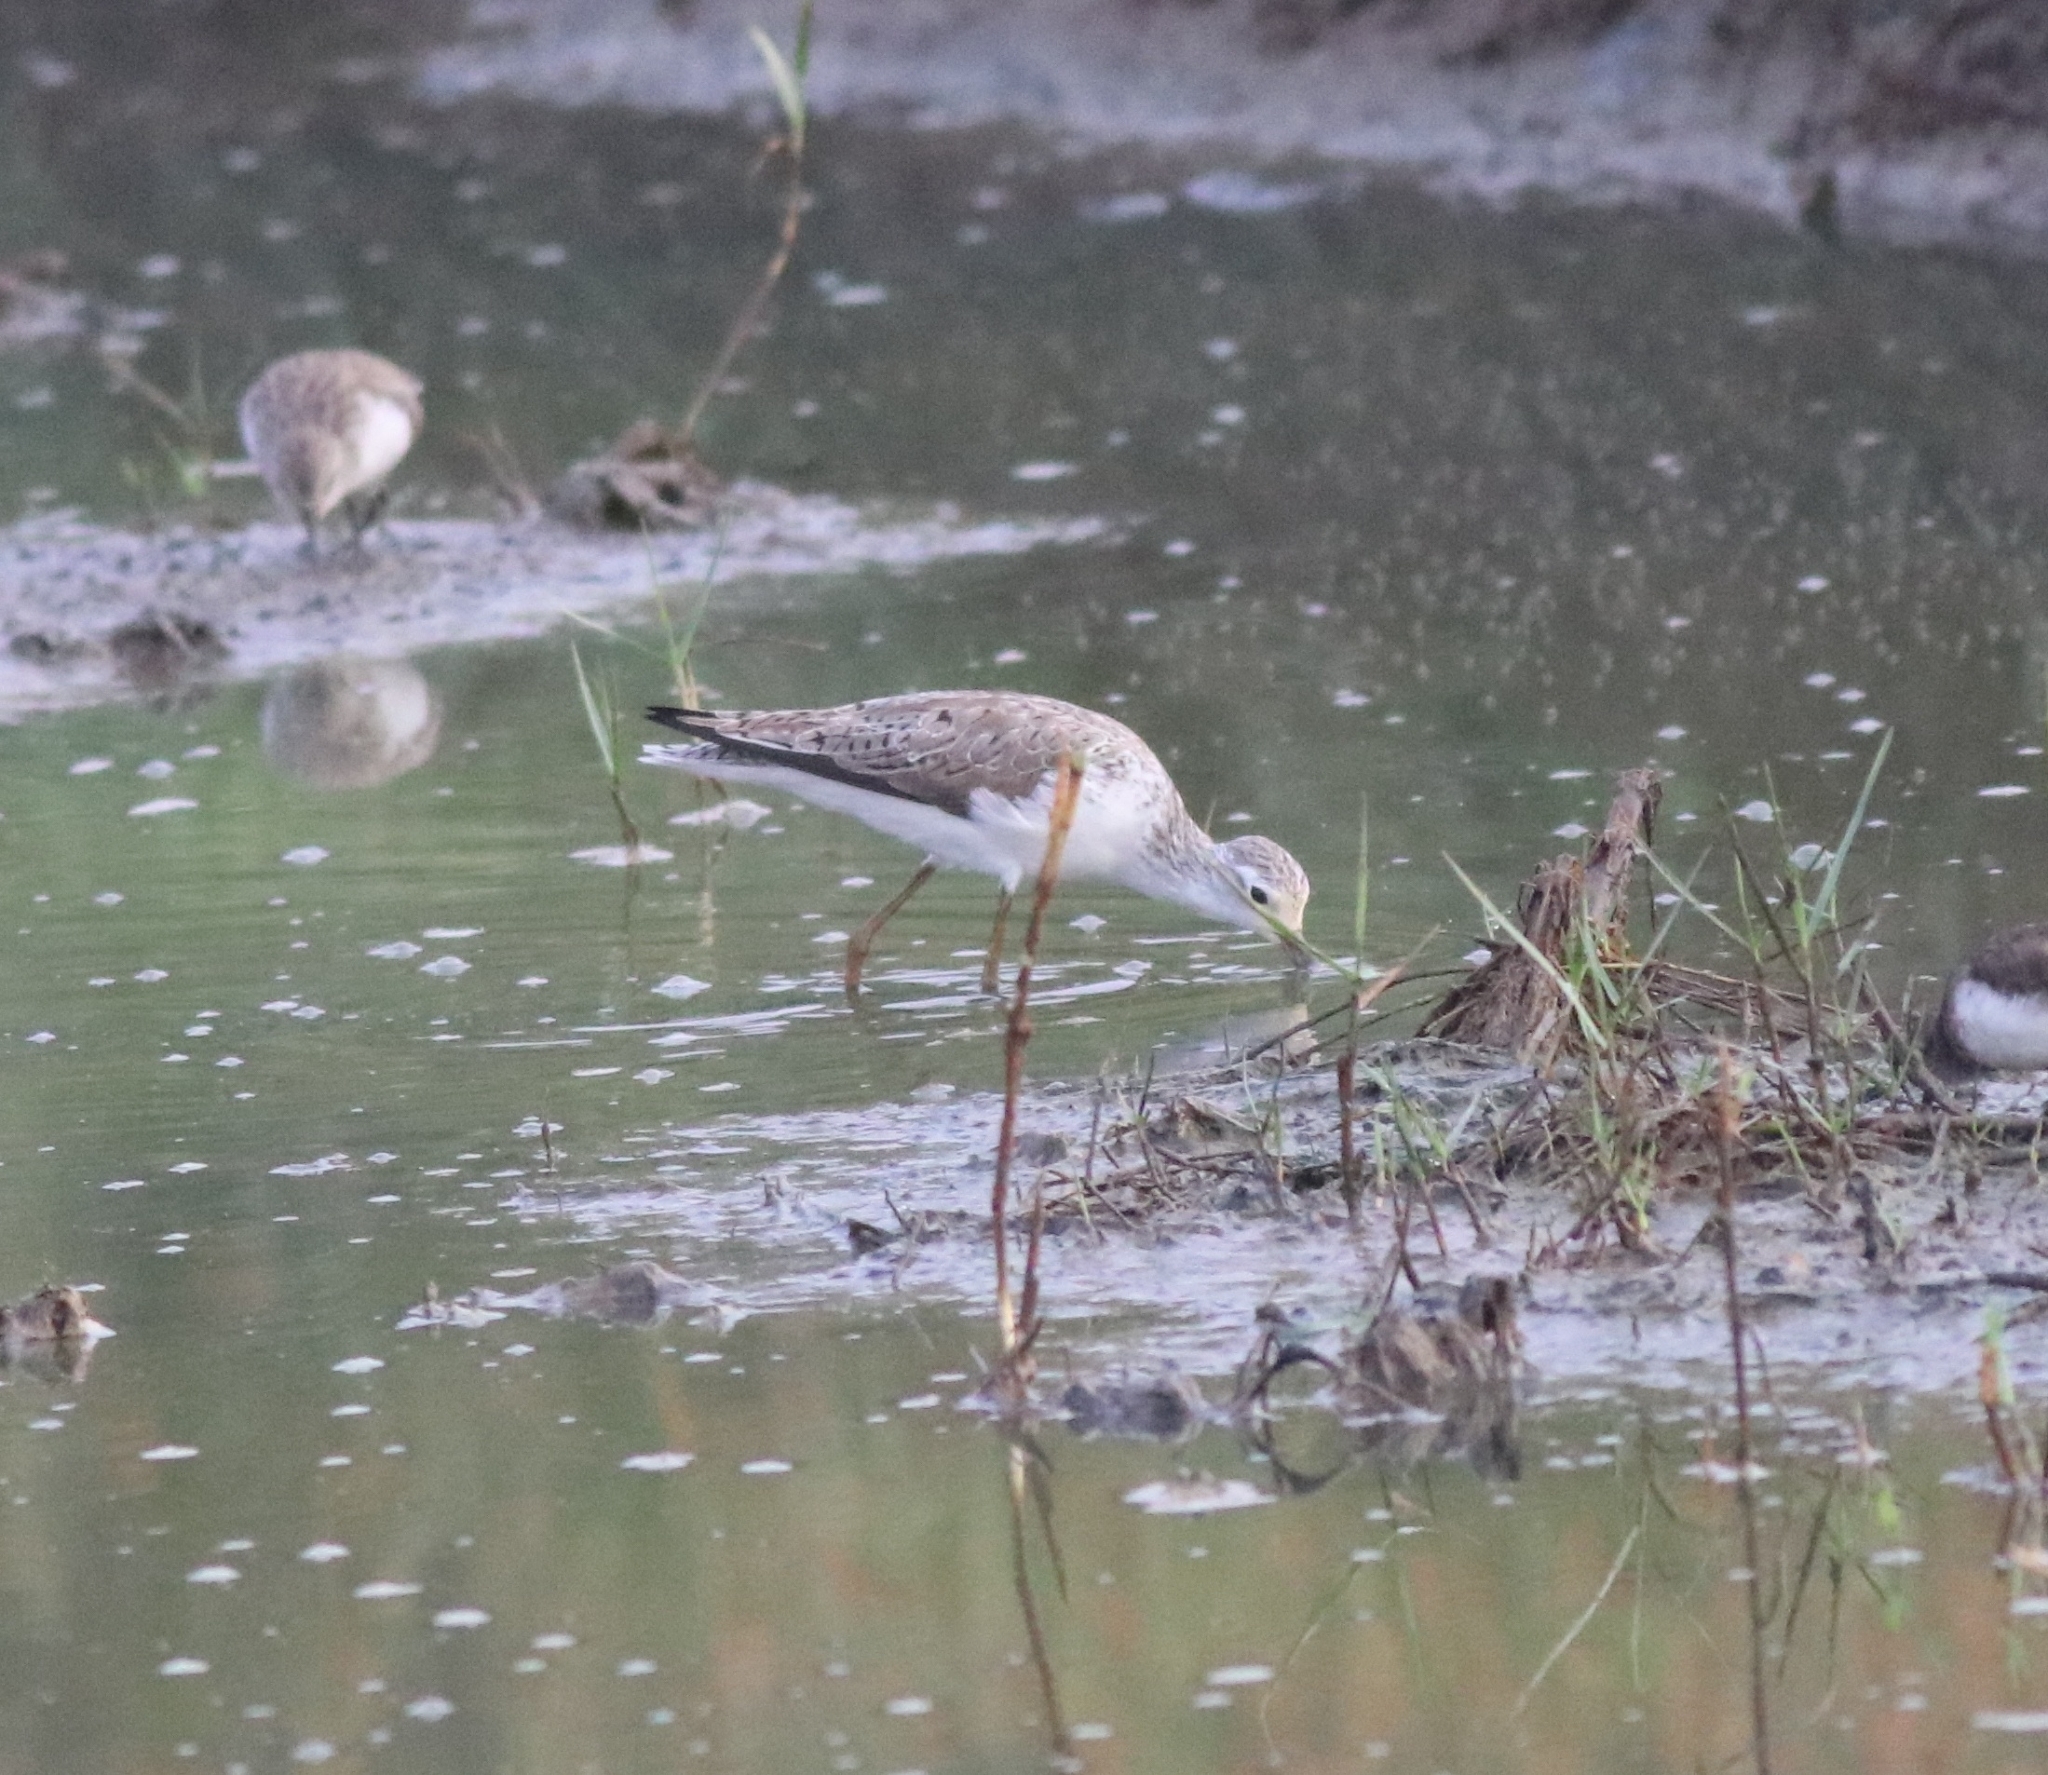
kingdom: Animalia
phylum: Chordata
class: Aves
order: Charadriiformes
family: Scolopacidae
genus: Tringa
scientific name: Tringa stagnatilis
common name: Marsh sandpiper
